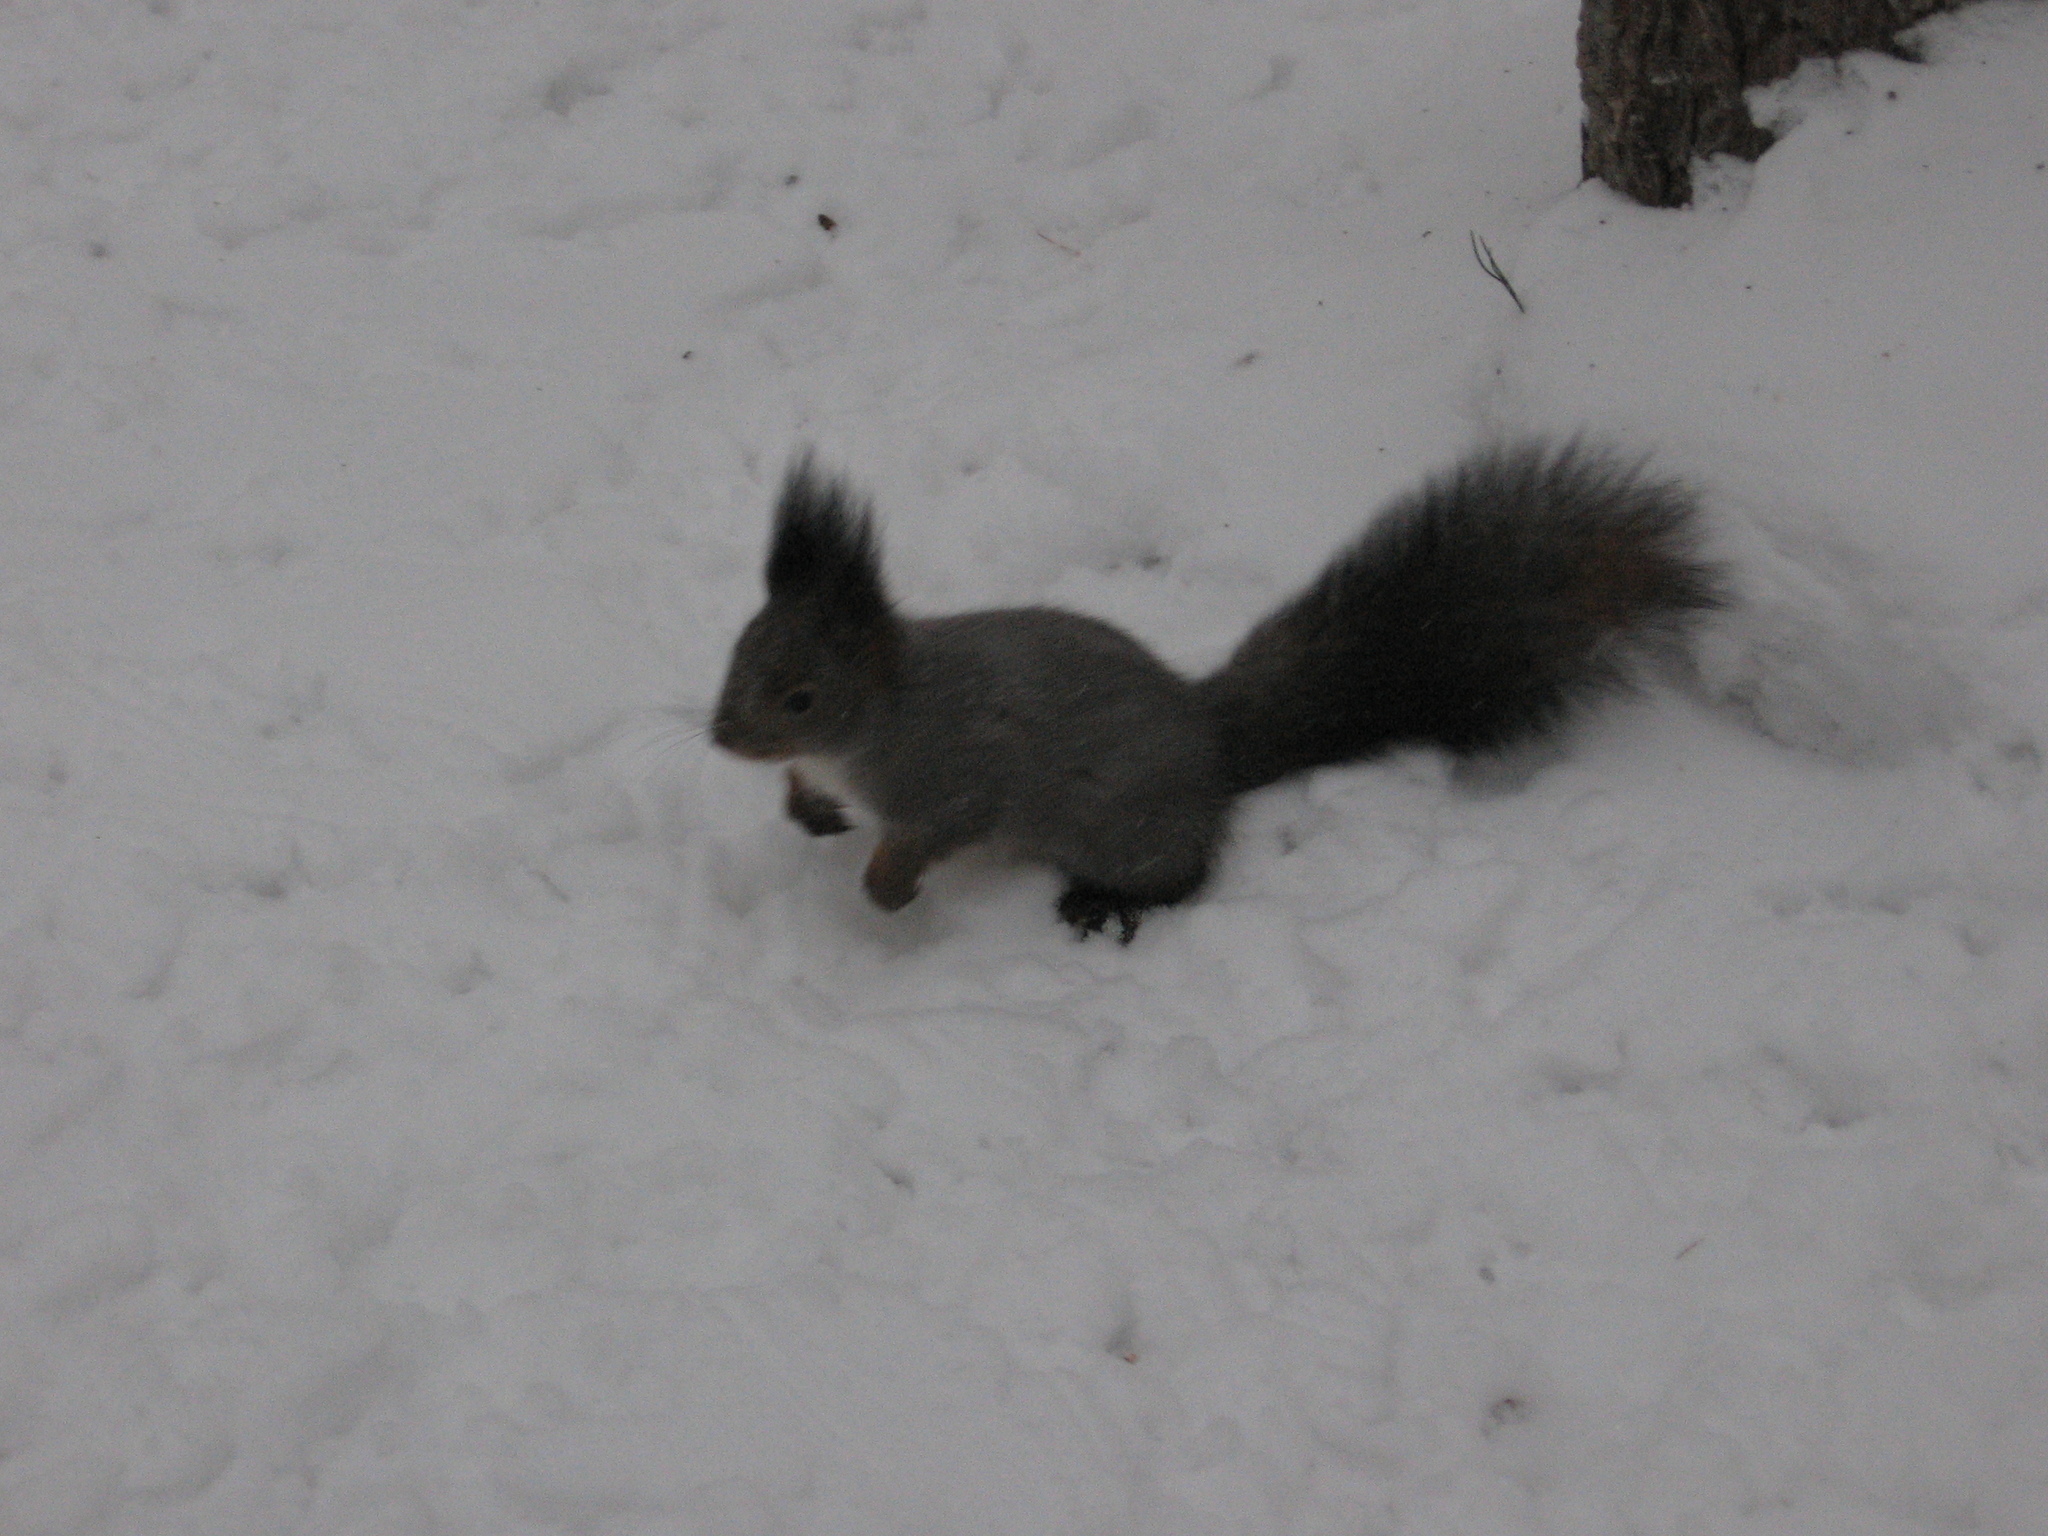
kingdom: Animalia
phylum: Chordata
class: Mammalia
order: Rodentia
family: Sciuridae
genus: Sciurus
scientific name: Sciurus vulgaris
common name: Eurasian red squirrel
